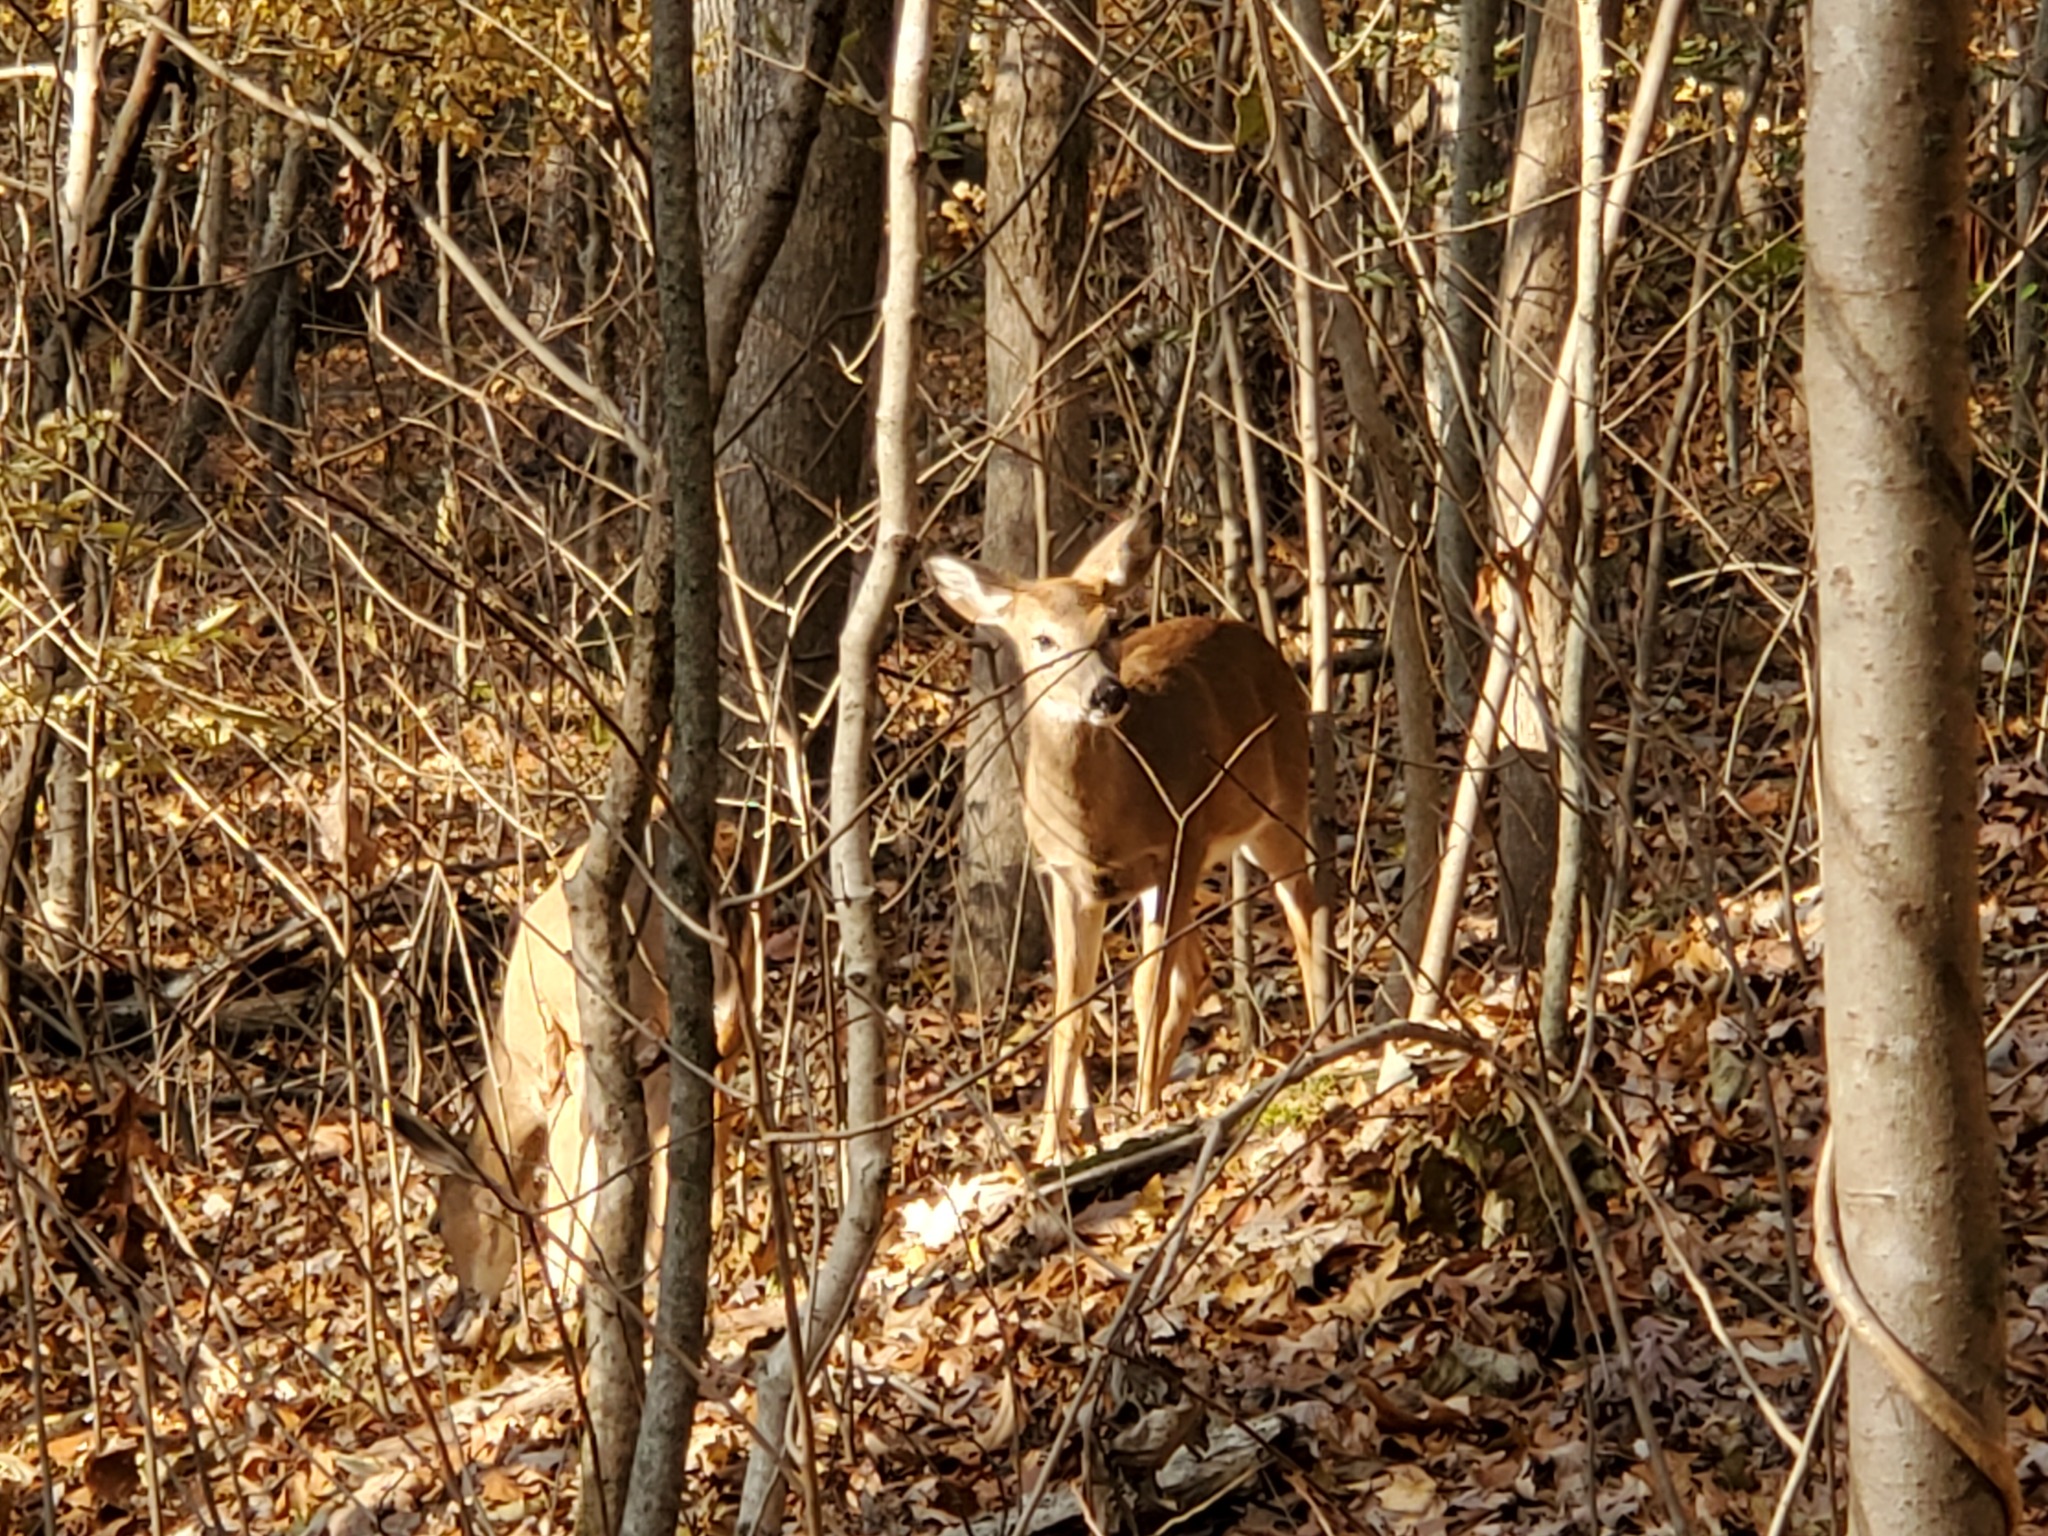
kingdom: Animalia
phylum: Chordata
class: Mammalia
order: Artiodactyla
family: Cervidae
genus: Odocoileus
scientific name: Odocoileus virginianus
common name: White-tailed deer
